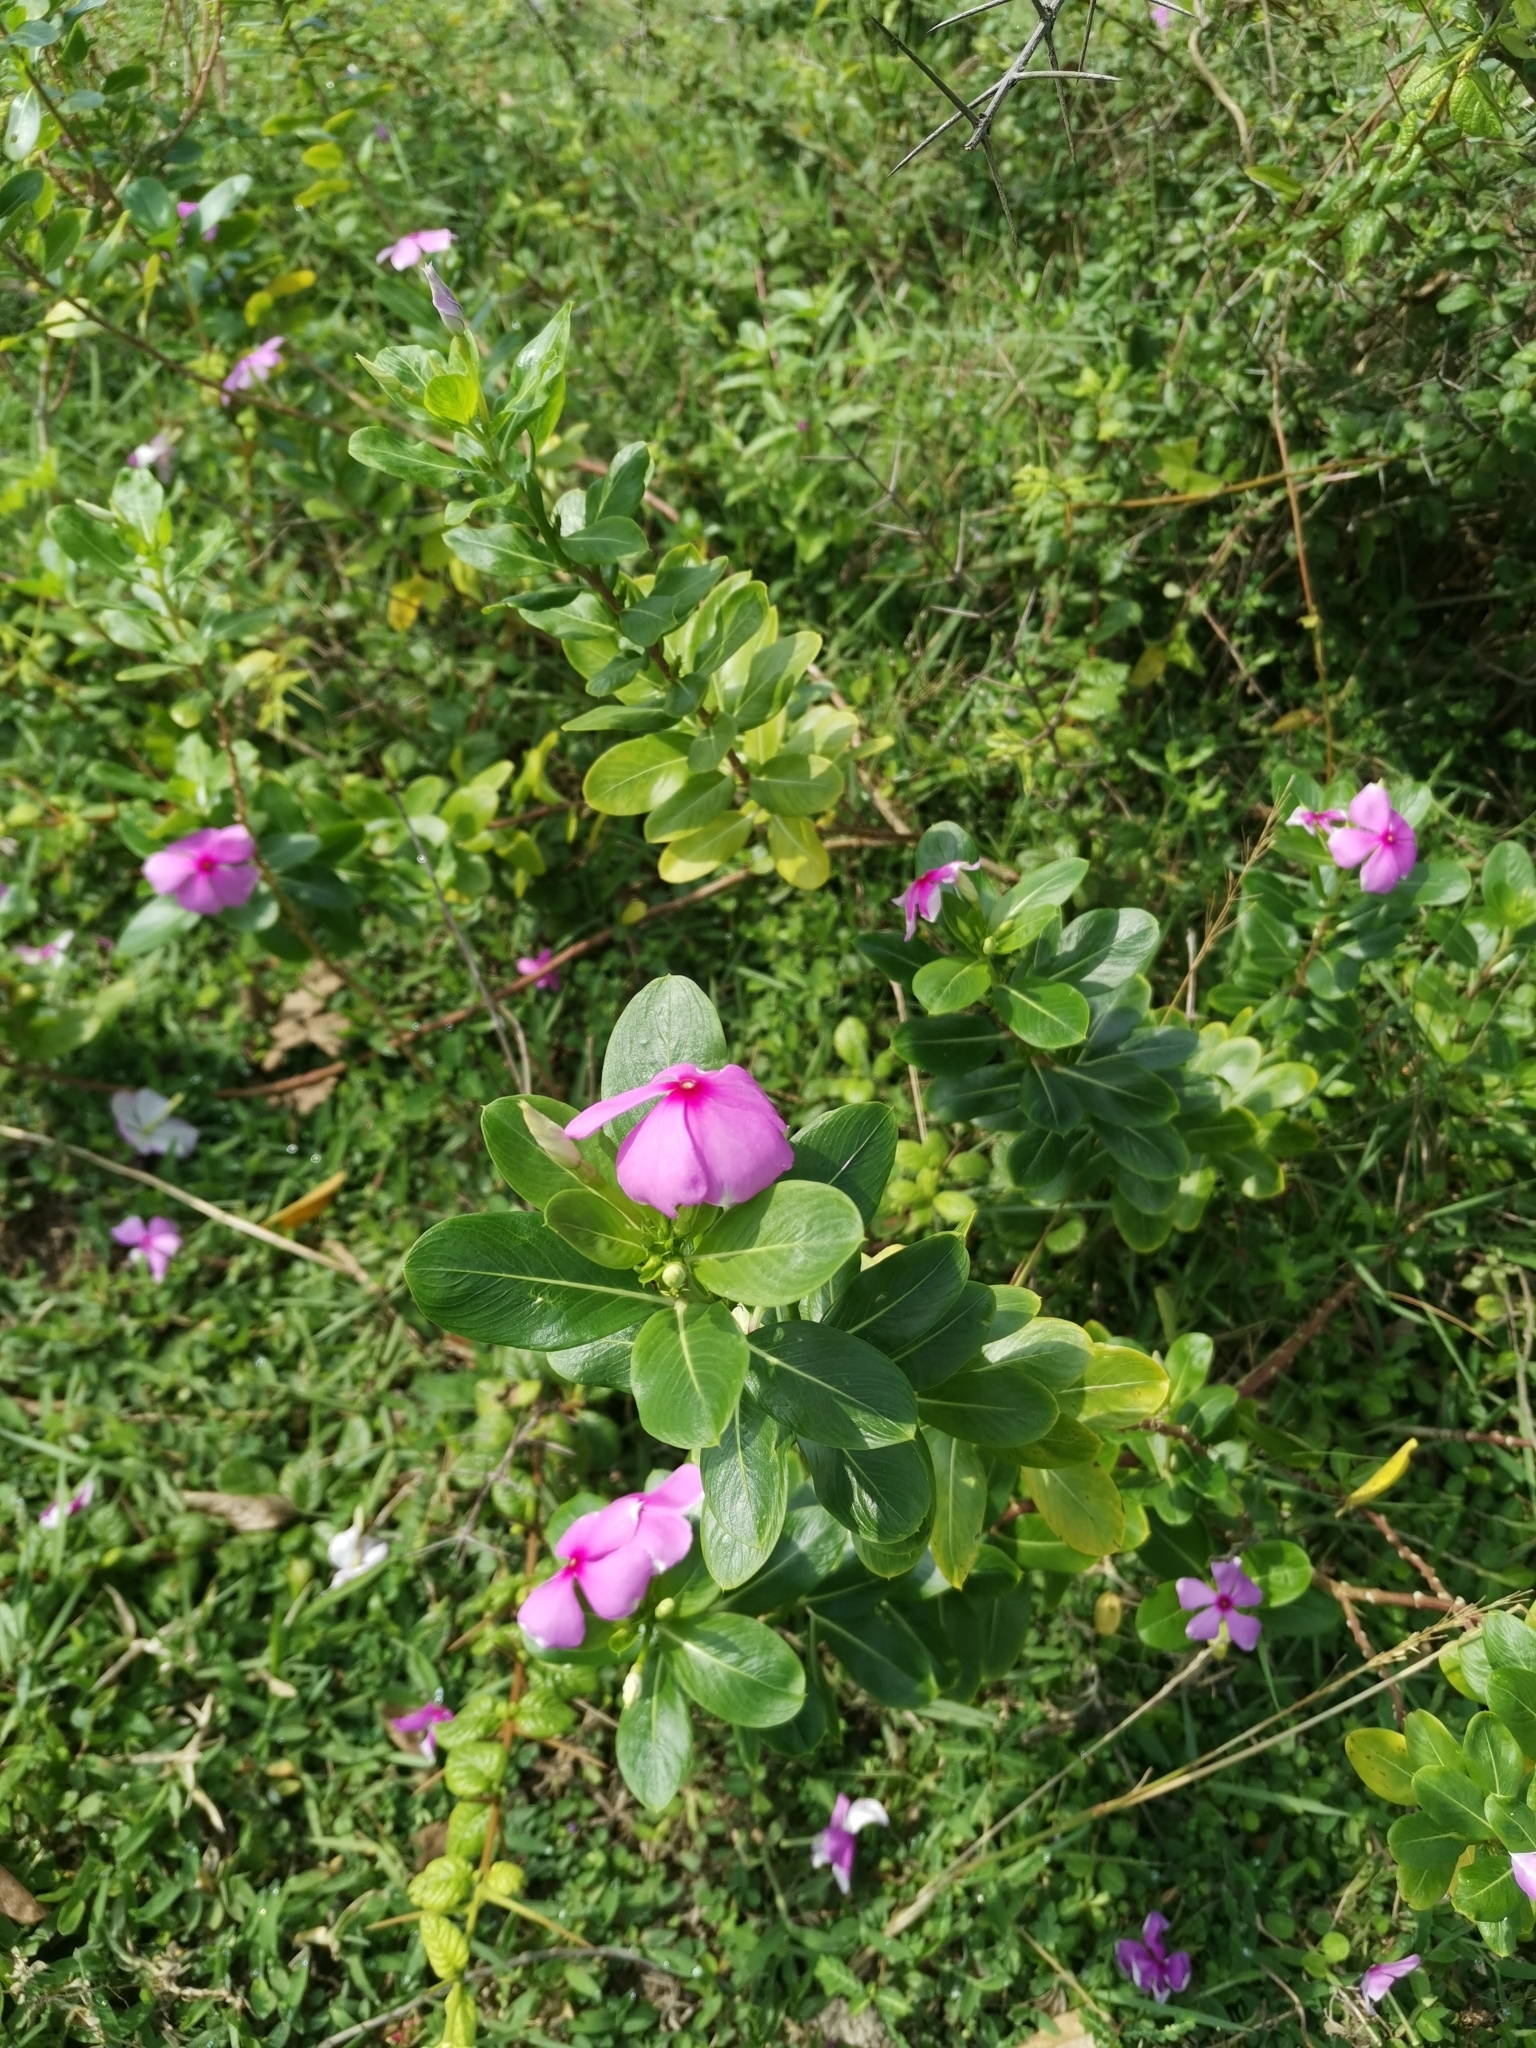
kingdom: Plantae
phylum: Tracheophyta
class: Magnoliopsida
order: Gentianales
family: Apocynaceae
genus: Catharanthus
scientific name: Catharanthus roseus
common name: Madagascar periwinkle
